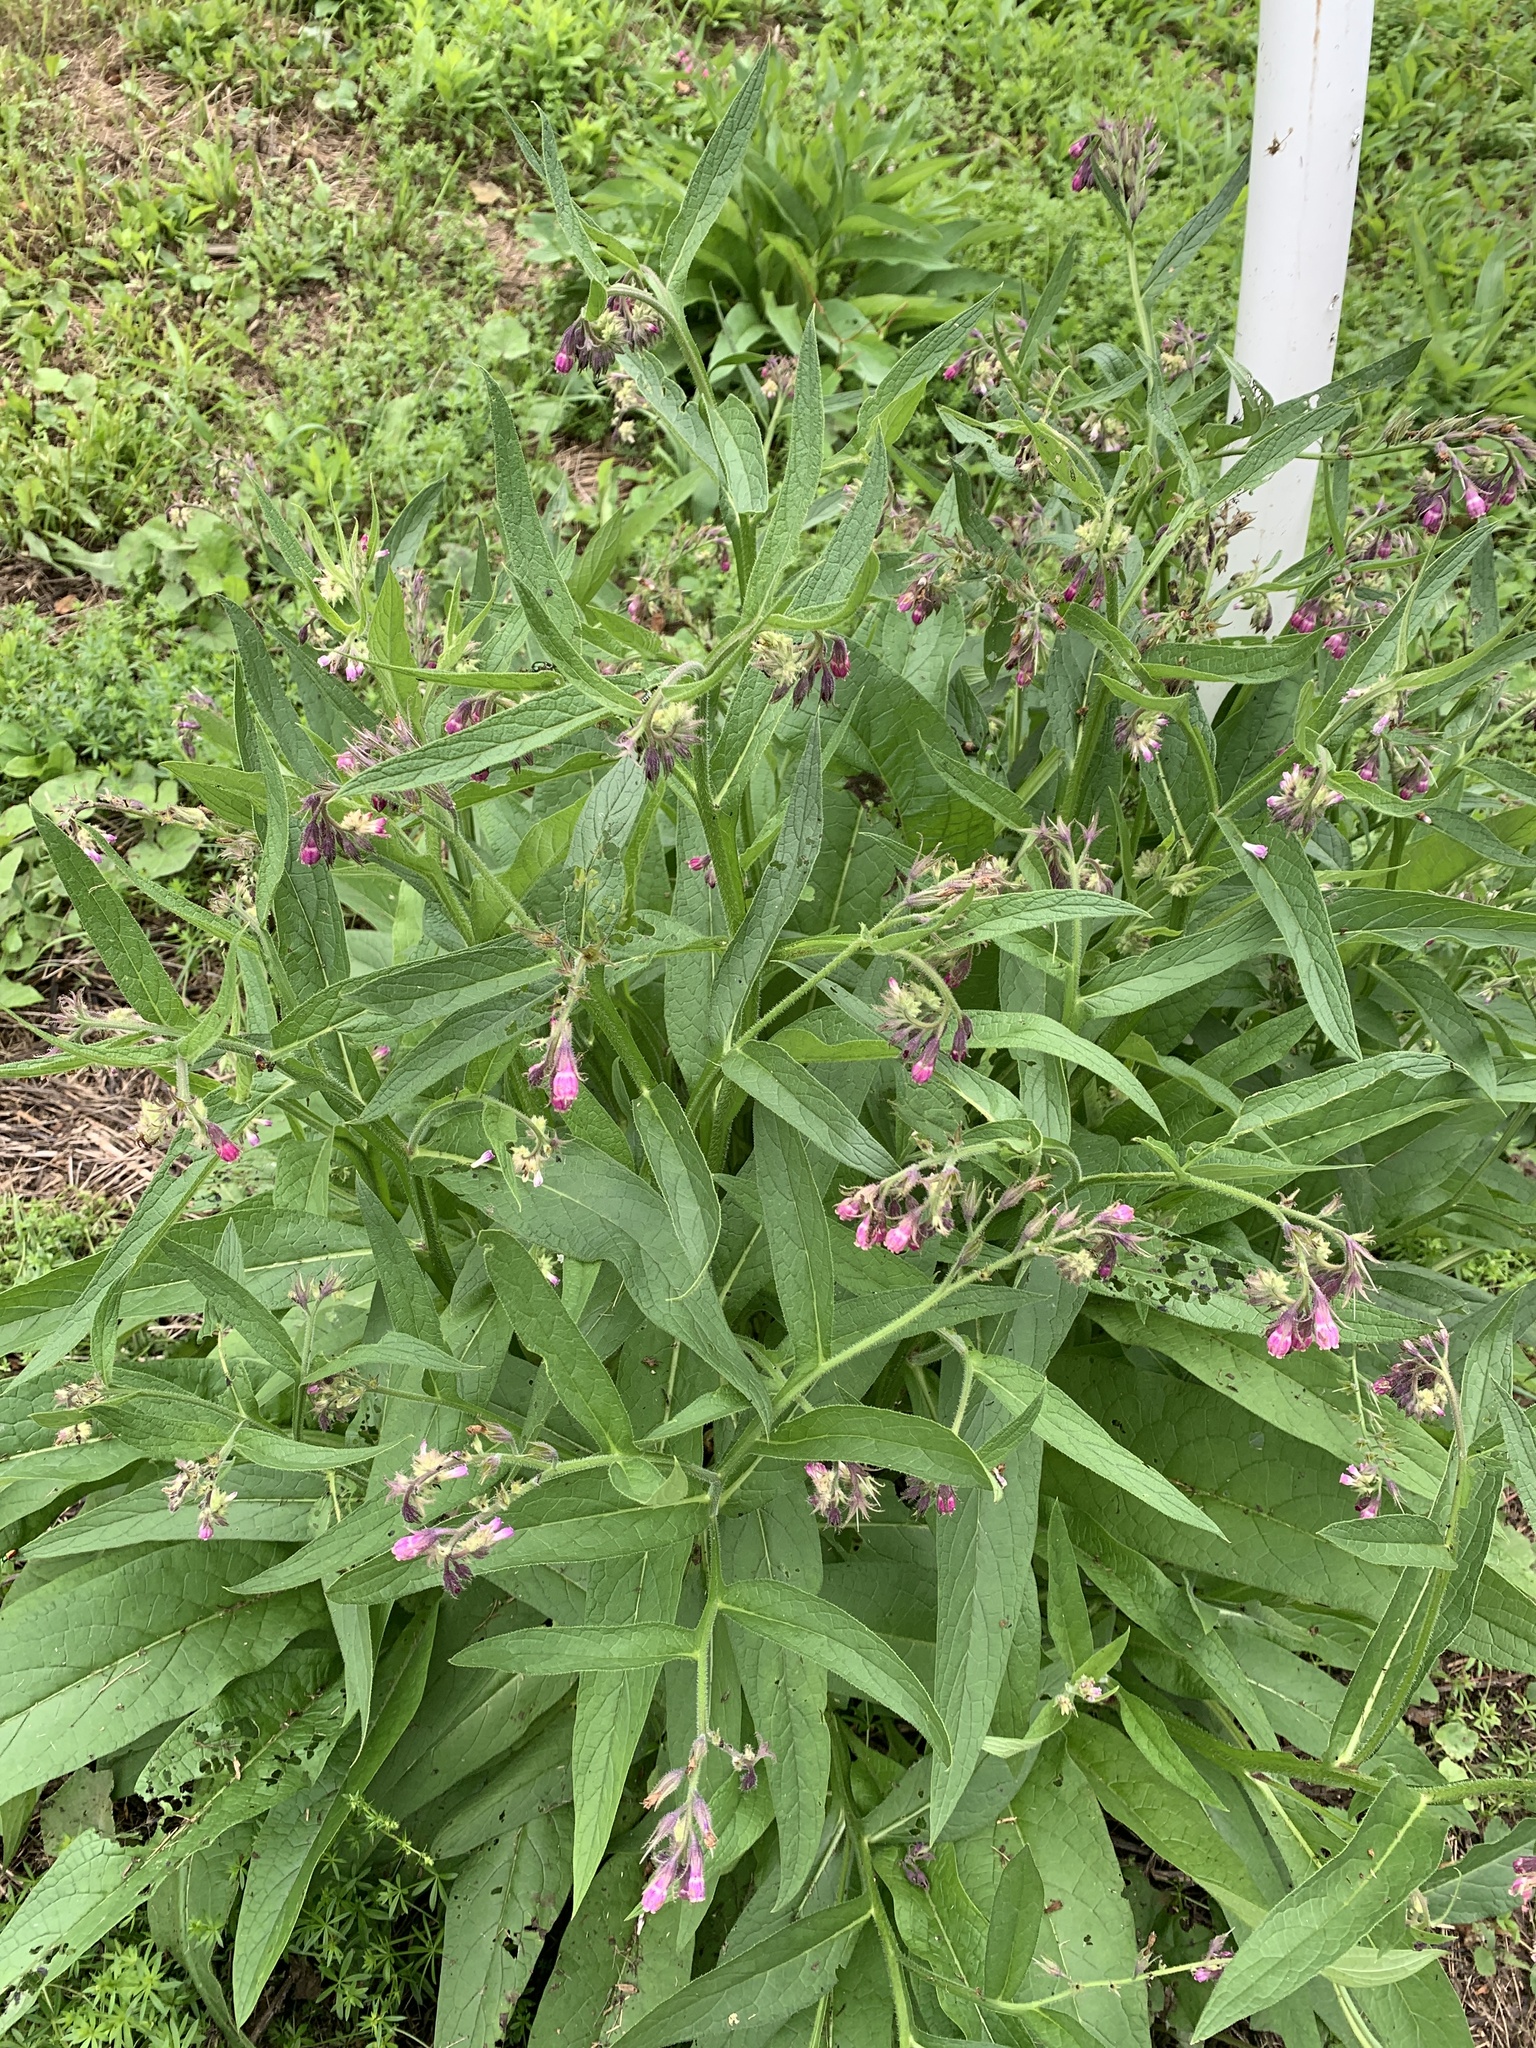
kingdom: Plantae
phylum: Tracheophyta
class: Magnoliopsida
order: Boraginales
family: Boraginaceae
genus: Symphytum
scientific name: Symphytum officinale
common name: Common comfrey
